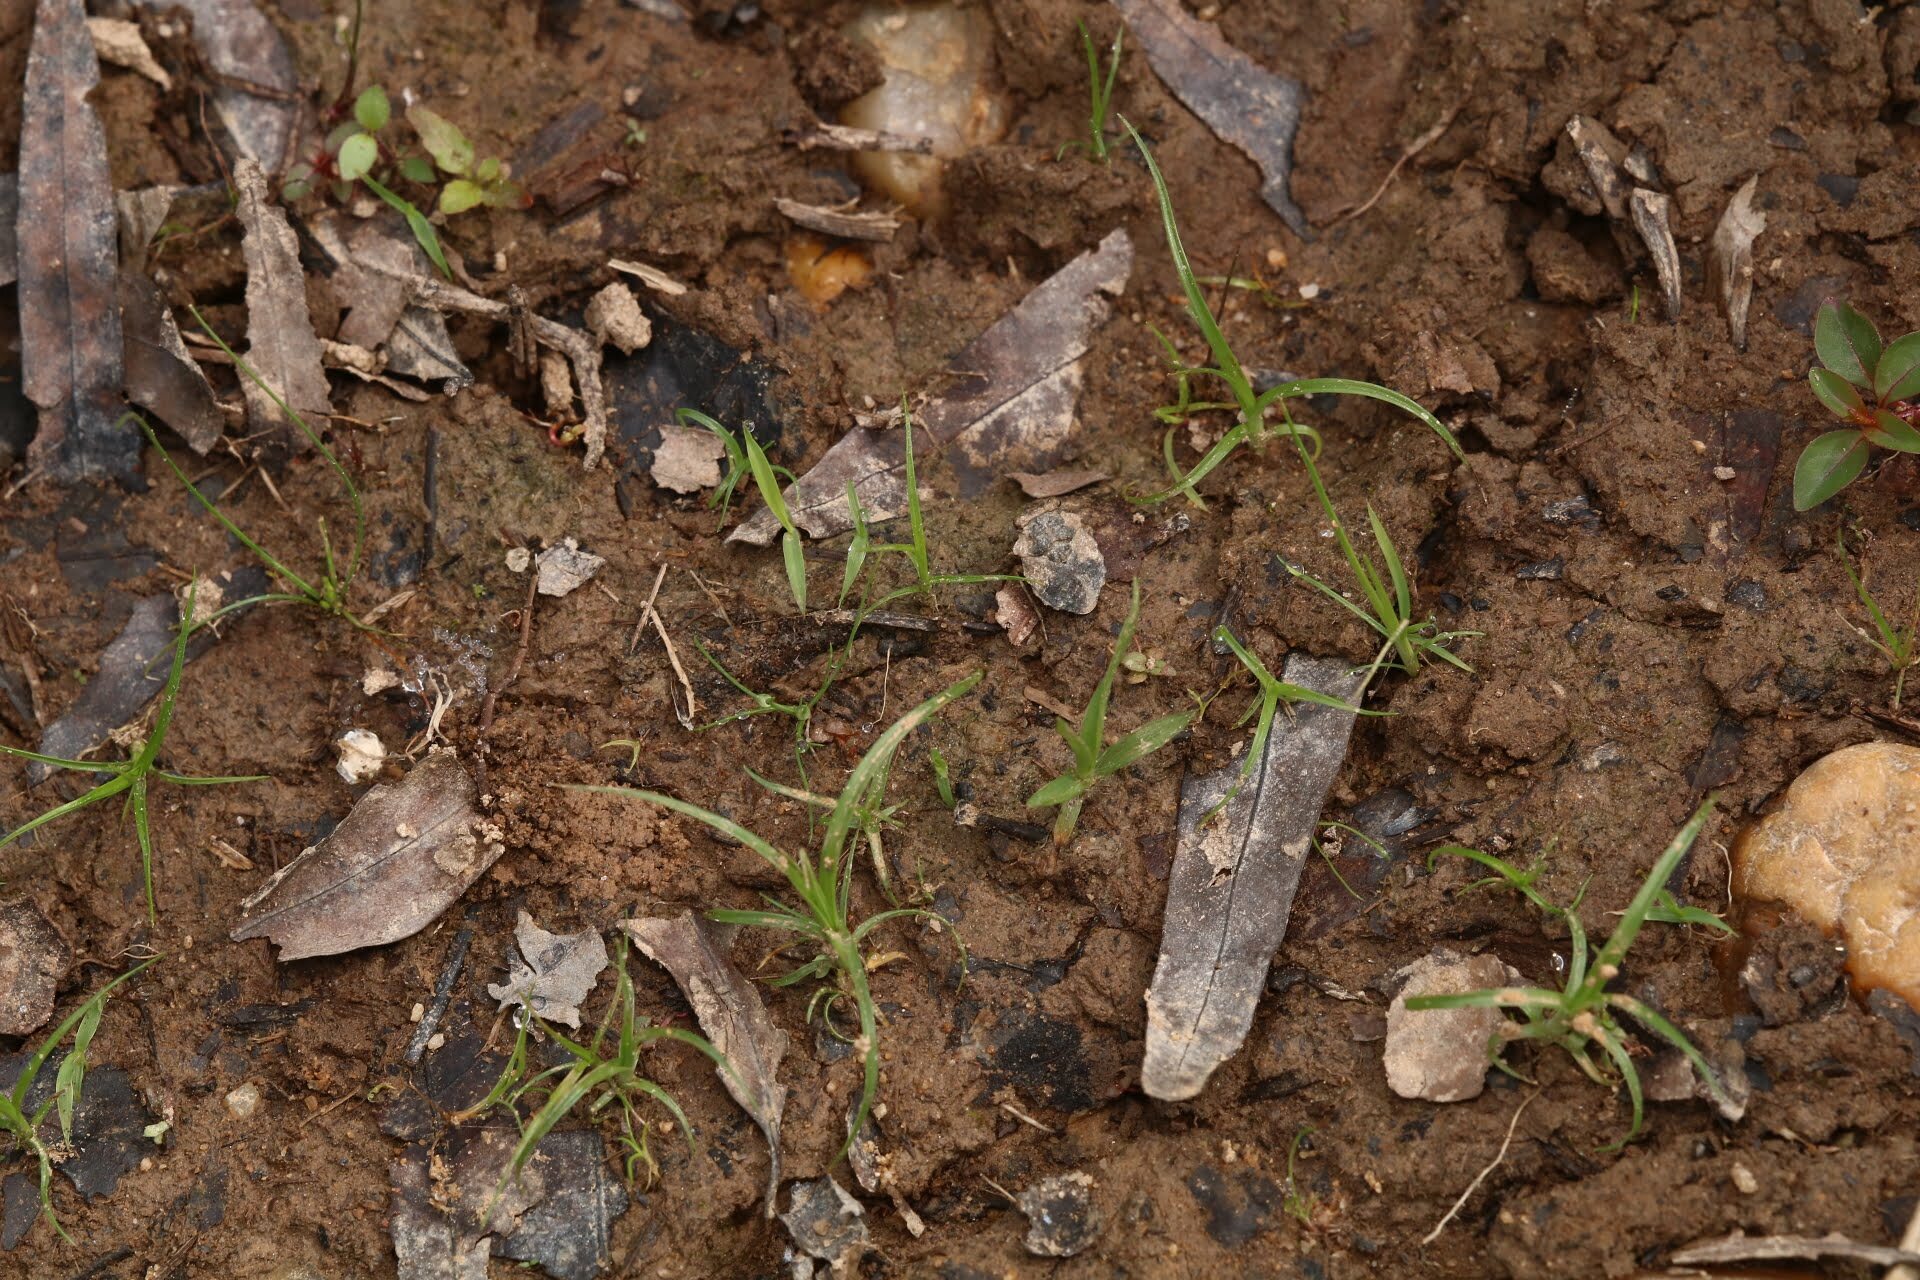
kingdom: Animalia
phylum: Arthropoda
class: Insecta
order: Hemiptera
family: Gelastocoridae
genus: Gelastocoris
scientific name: Gelastocoris oculatus
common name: Toad bug
